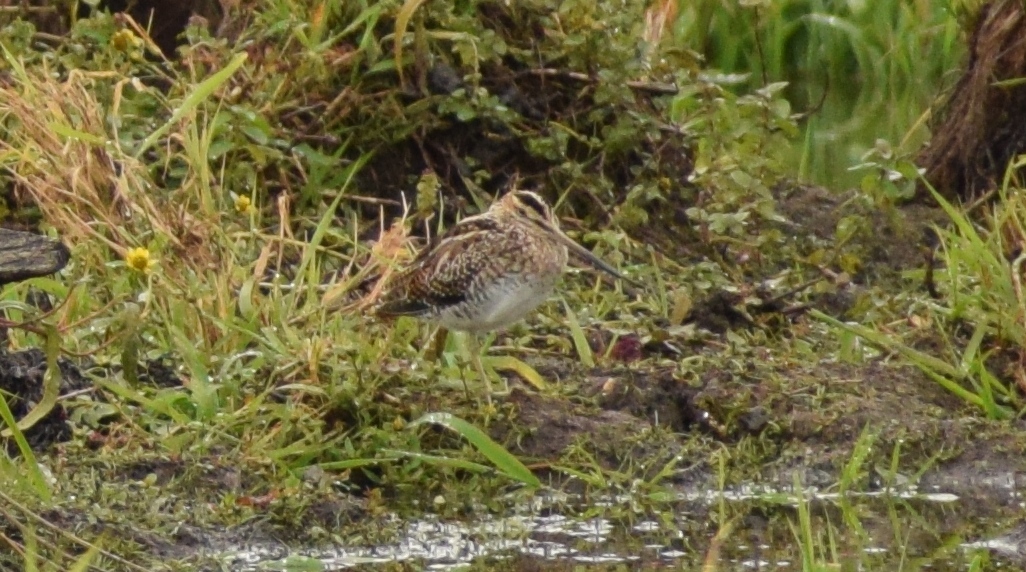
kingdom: Animalia
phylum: Chordata
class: Aves
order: Charadriiformes
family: Scolopacidae
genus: Gallinago
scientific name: Gallinago gallinago
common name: Common snipe
